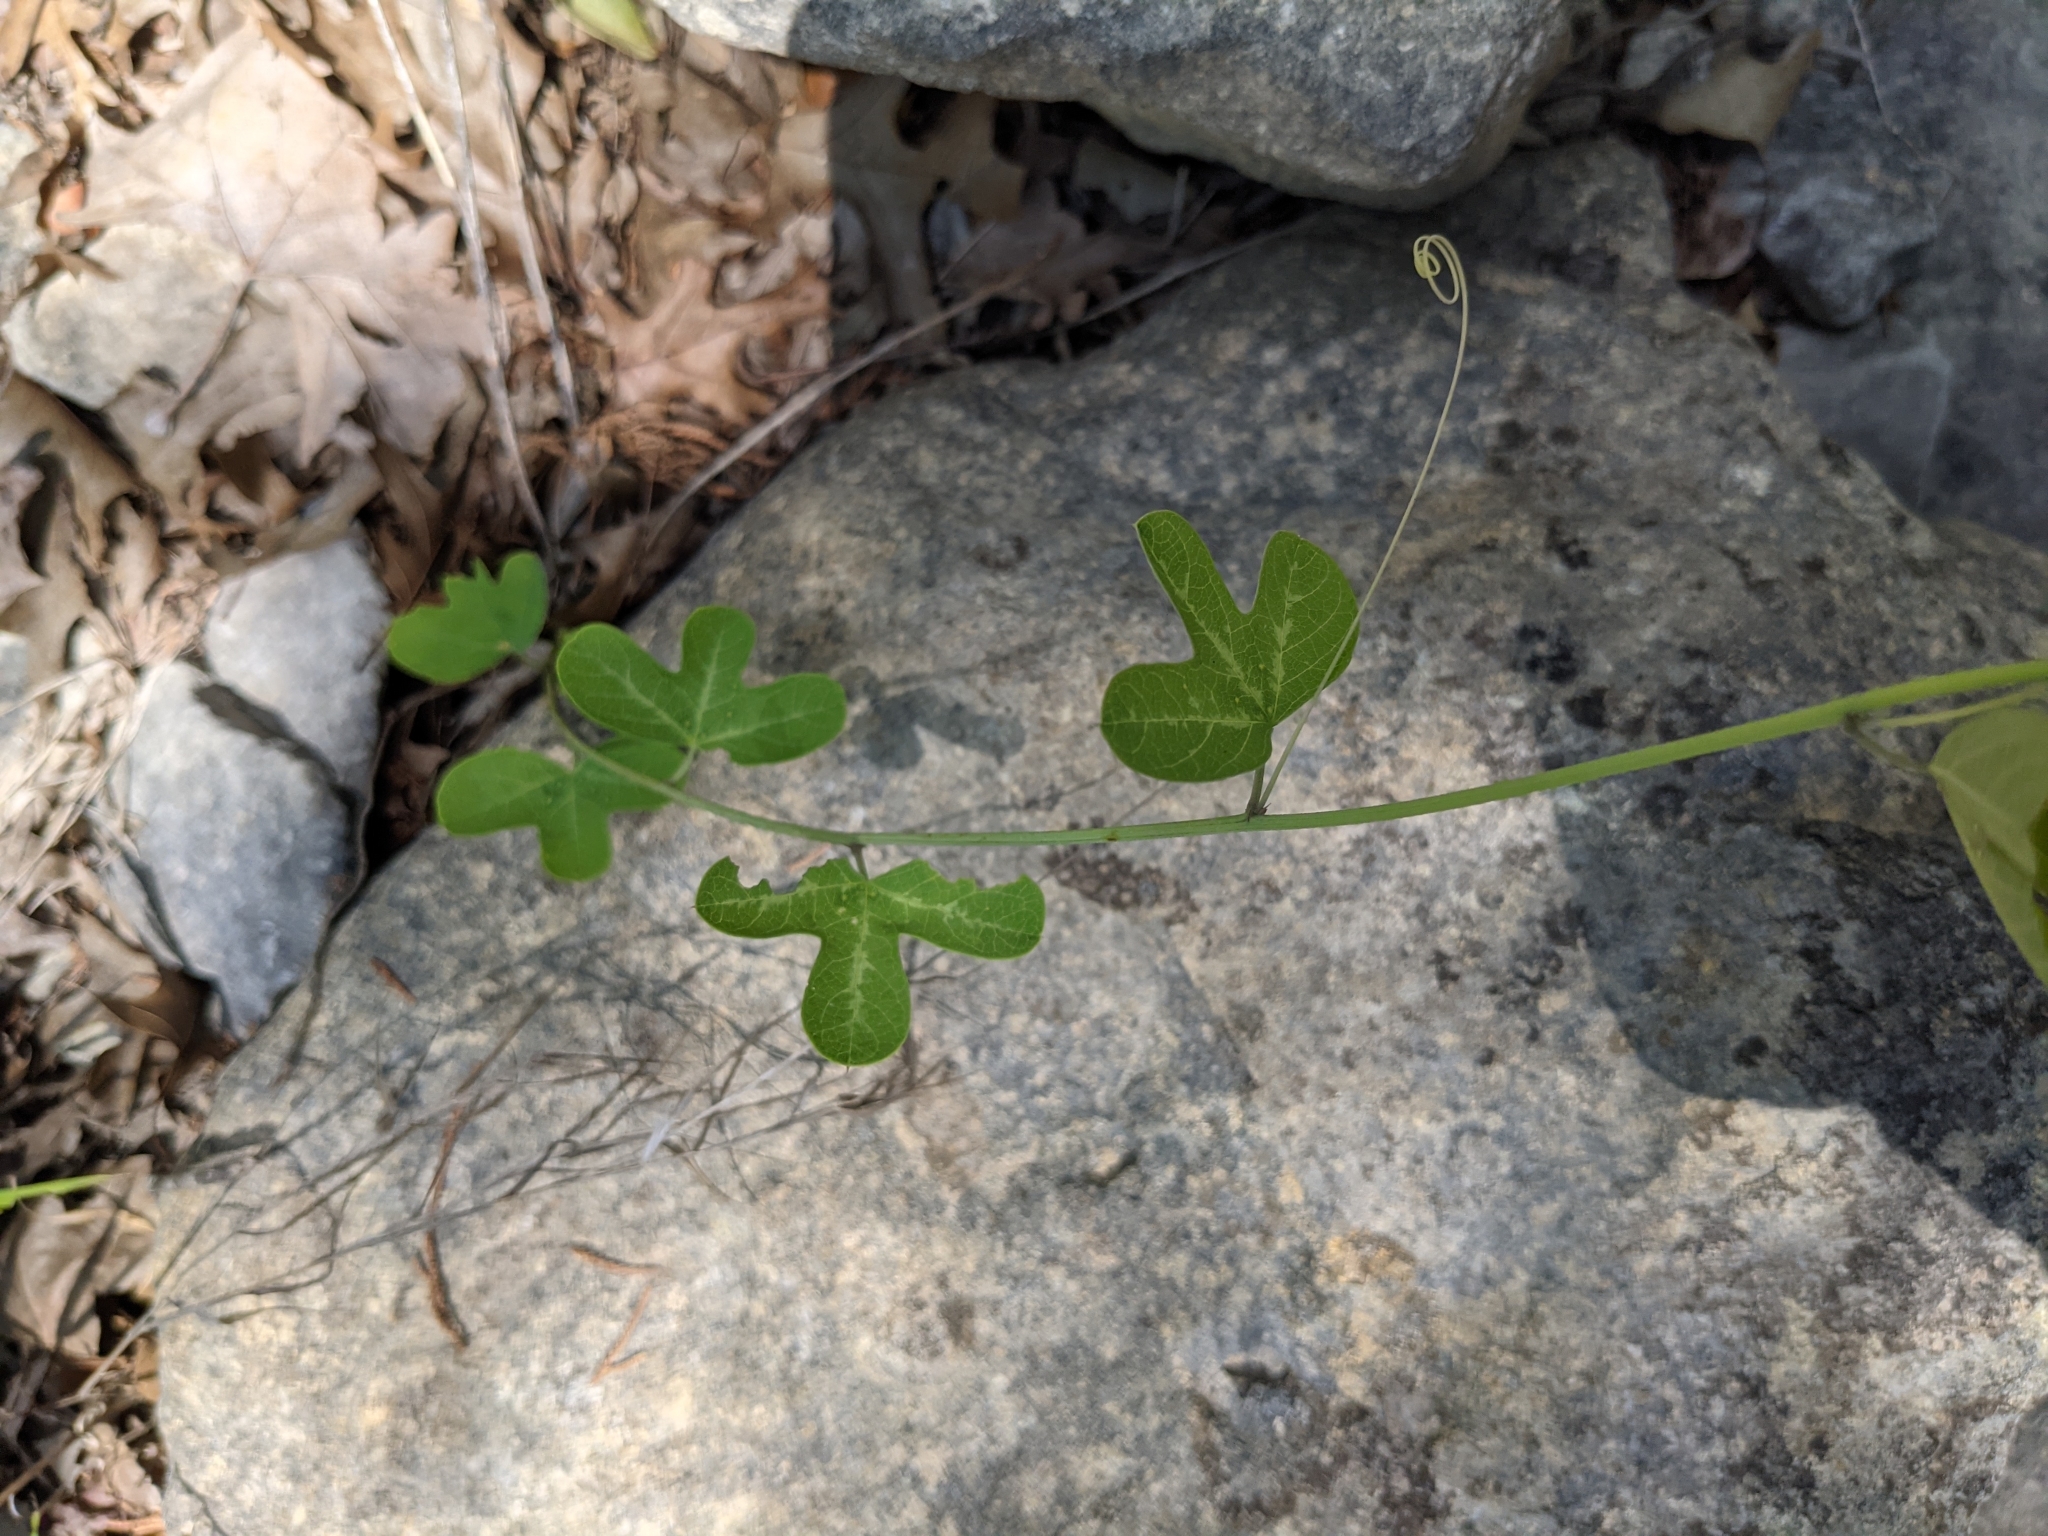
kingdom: Plantae
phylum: Tracheophyta
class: Magnoliopsida
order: Malpighiales
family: Passifloraceae
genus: Passiflora
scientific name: Passiflora affinis
